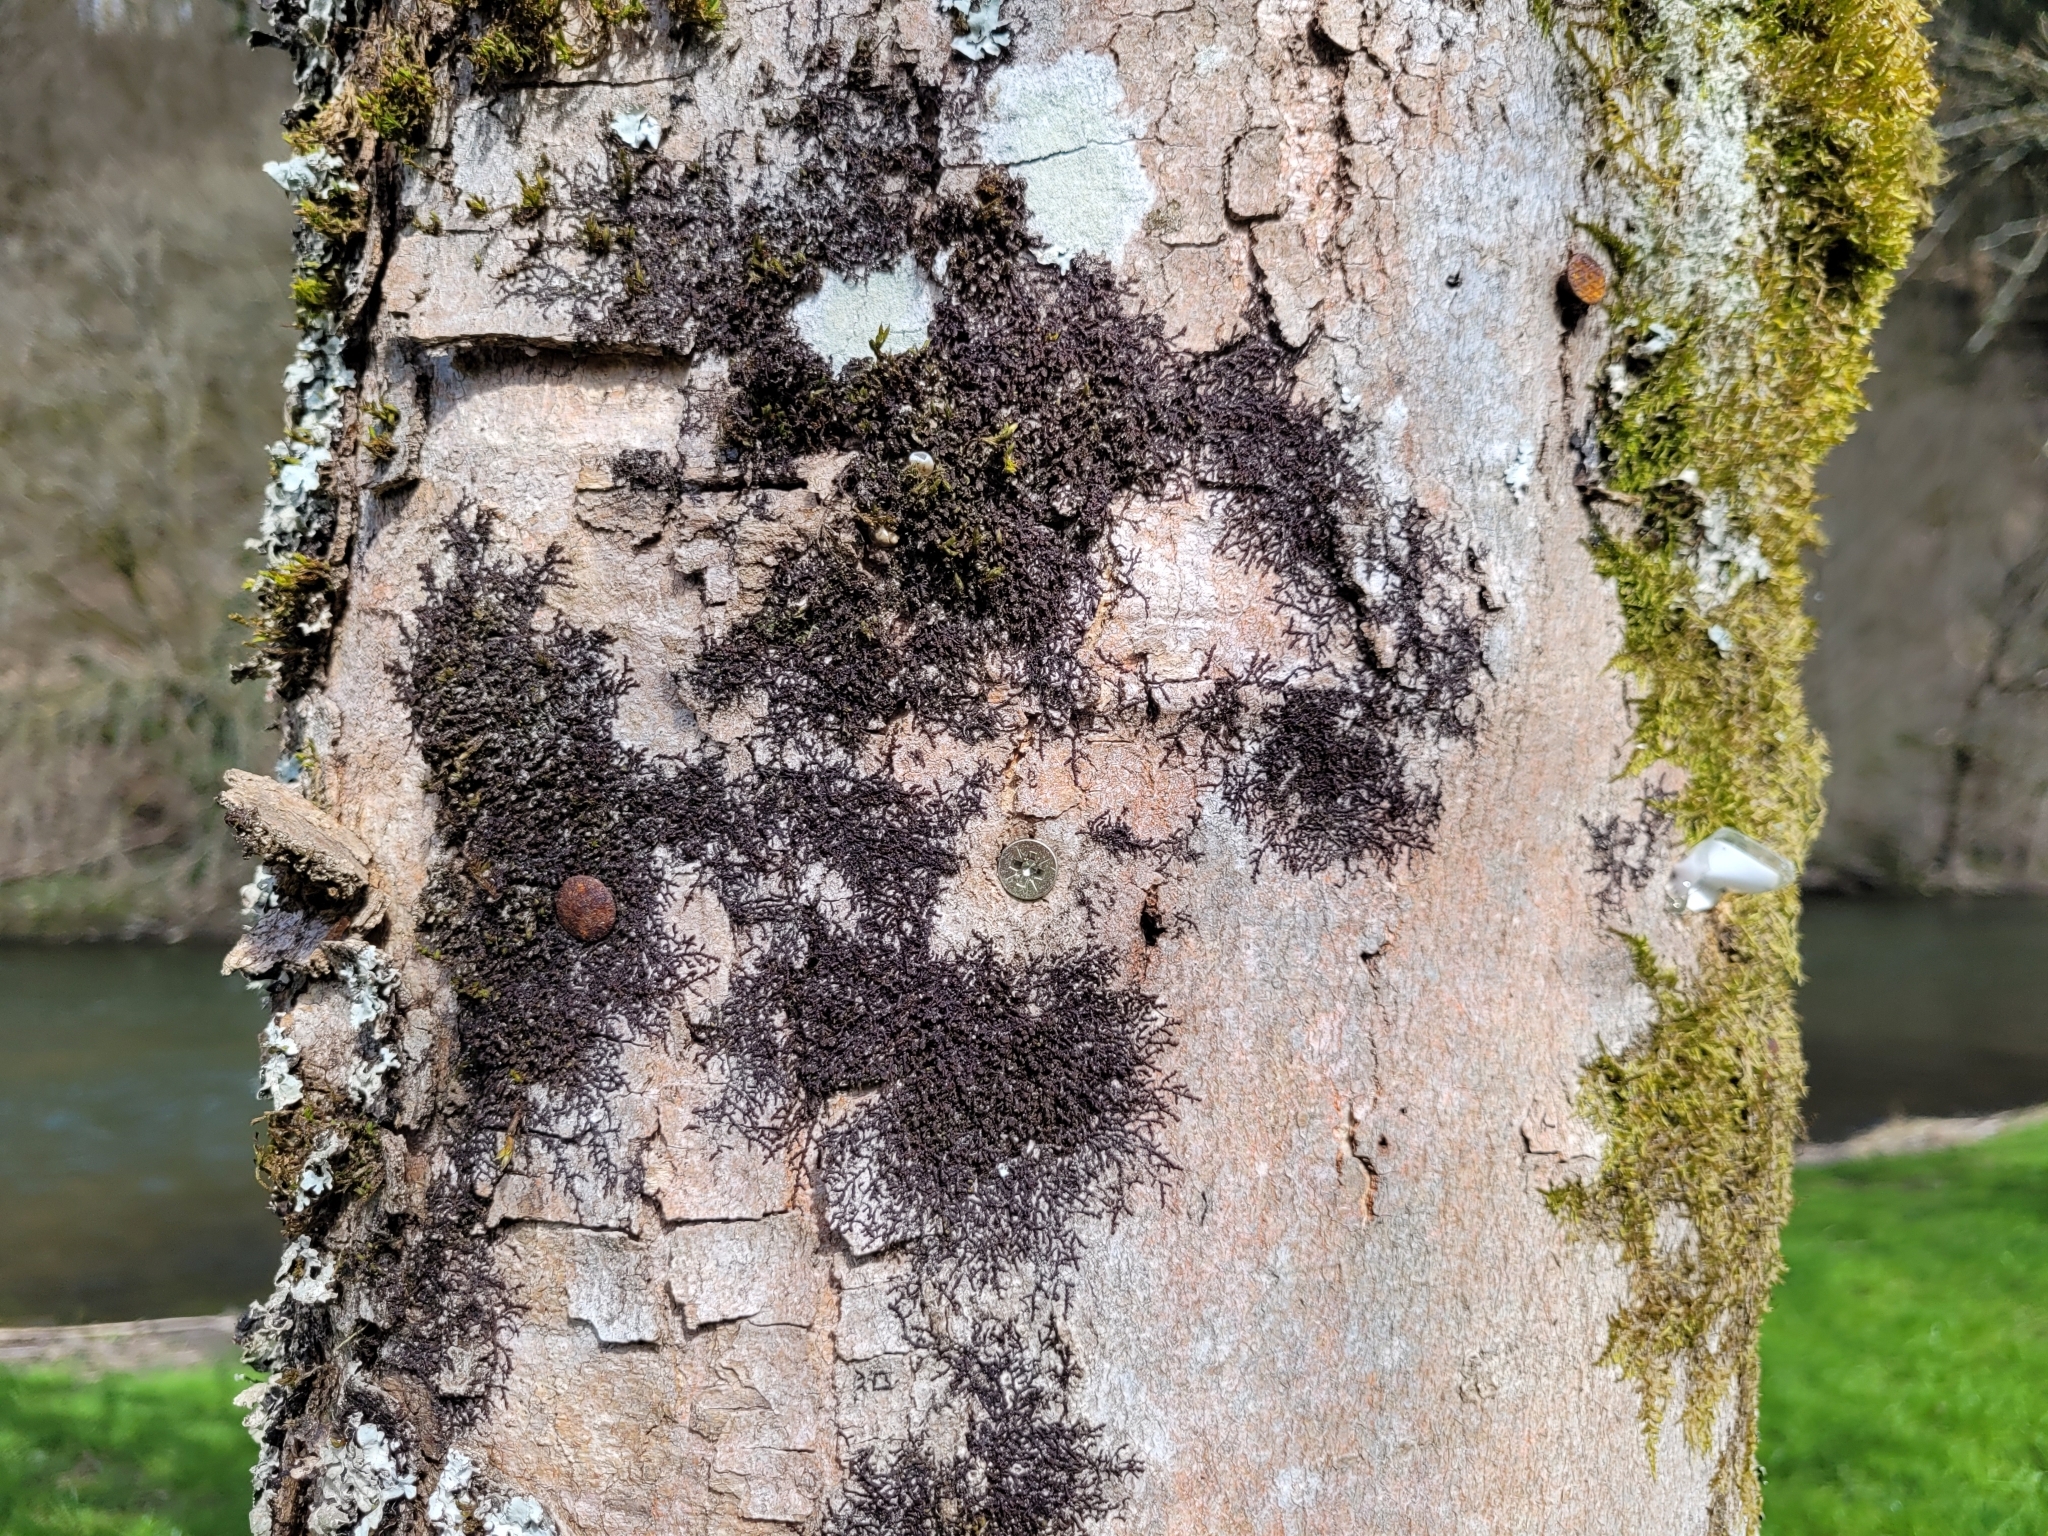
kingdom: Plantae
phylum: Marchantiophyta
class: Jungermanniopsida
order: Porellales
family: Frullaniaceae
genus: Frullania
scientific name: Frullania dilatata
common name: Dilated scalewort
